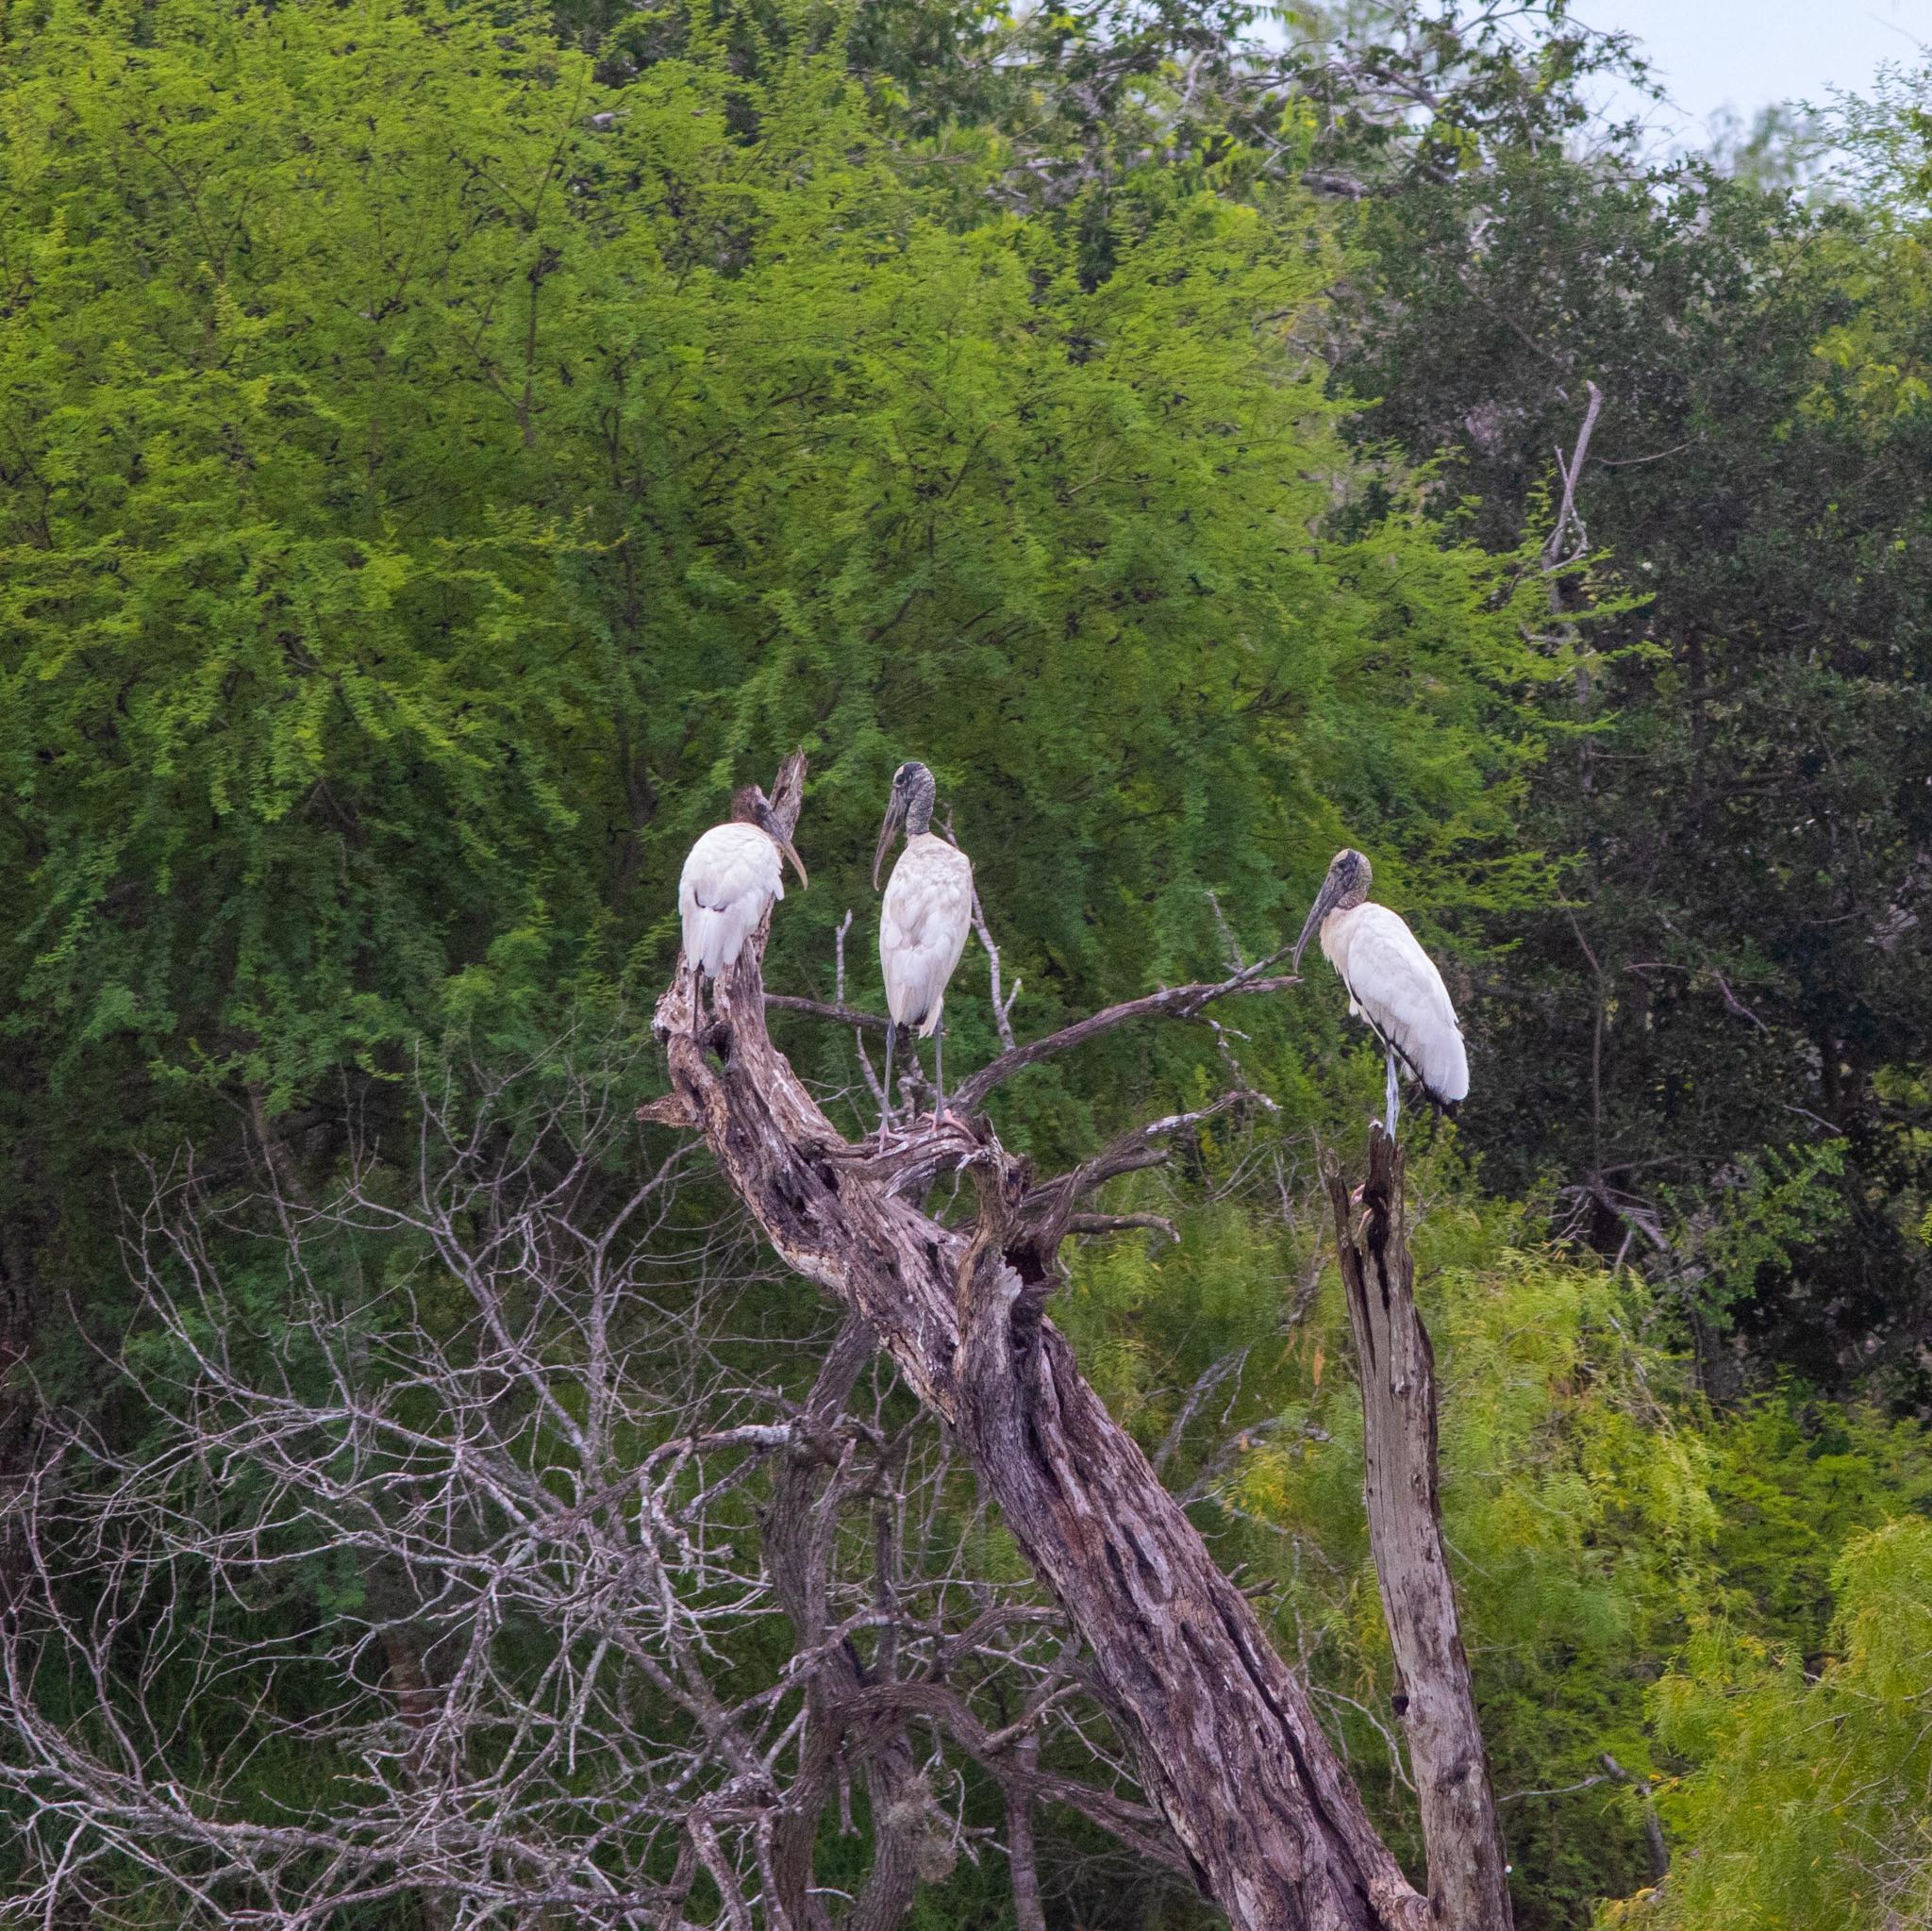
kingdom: Animalia
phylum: Chordata
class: Aves
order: Ciconiiformes
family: Ciconiidae
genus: Mycteria
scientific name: Mycteria americana
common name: Wood stork
